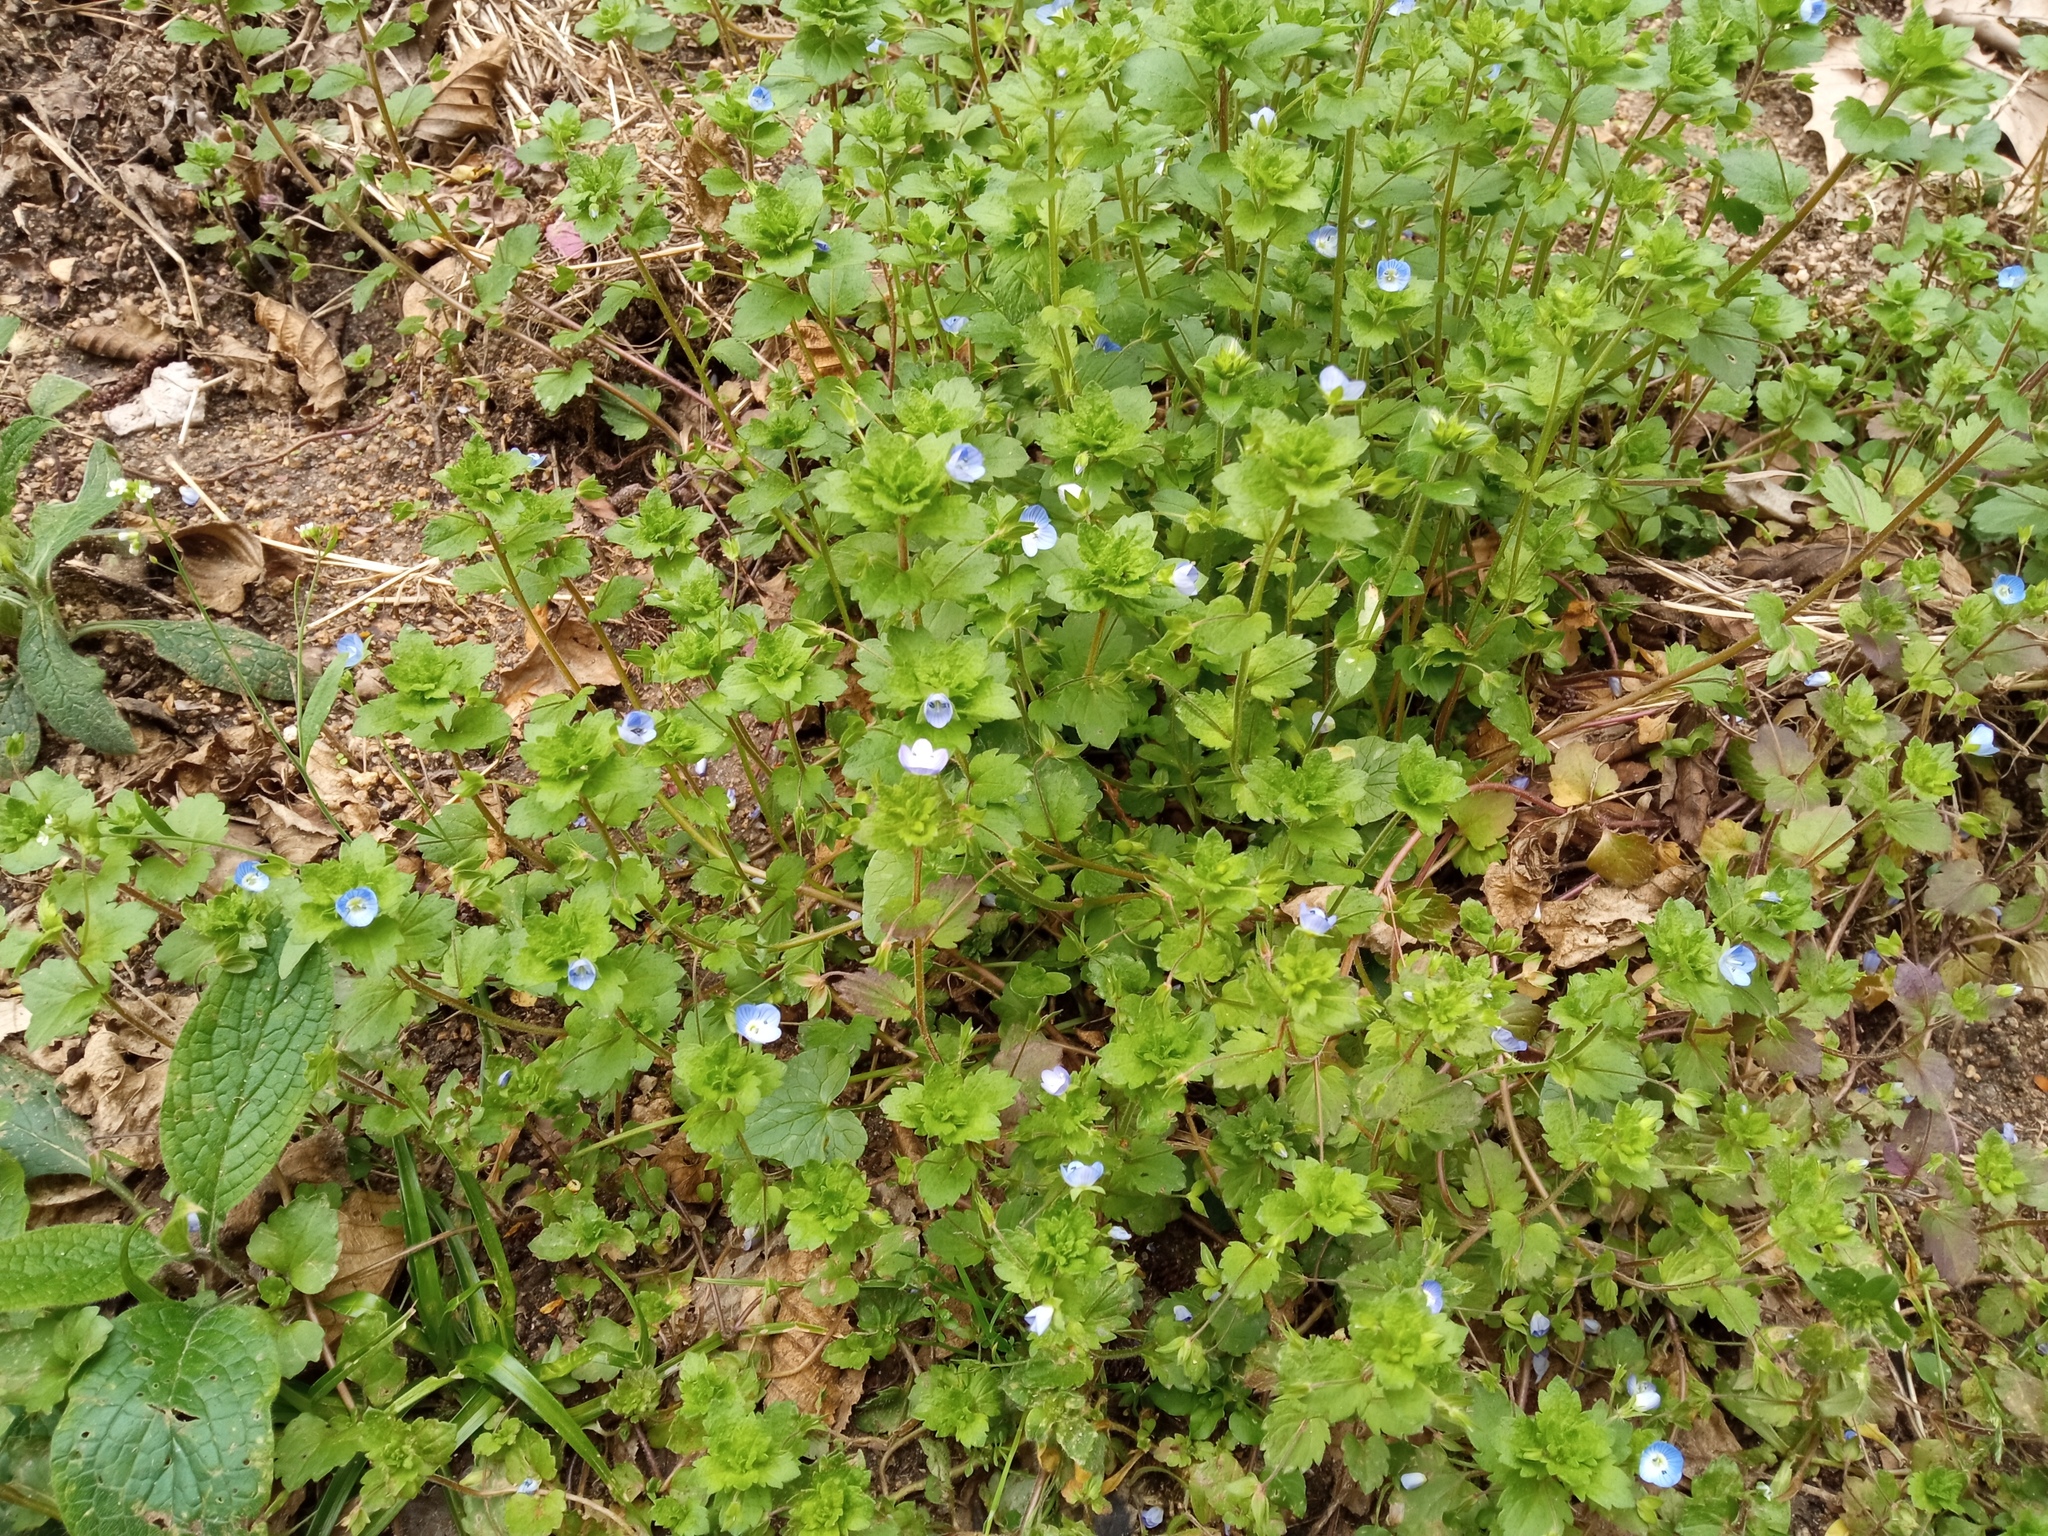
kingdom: Plantae
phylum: Tracheophyta
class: Magnoliopsida
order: Lamiales
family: Plantaginaceae
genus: Veronica
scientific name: Veronica persica
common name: Common field-speedwell
